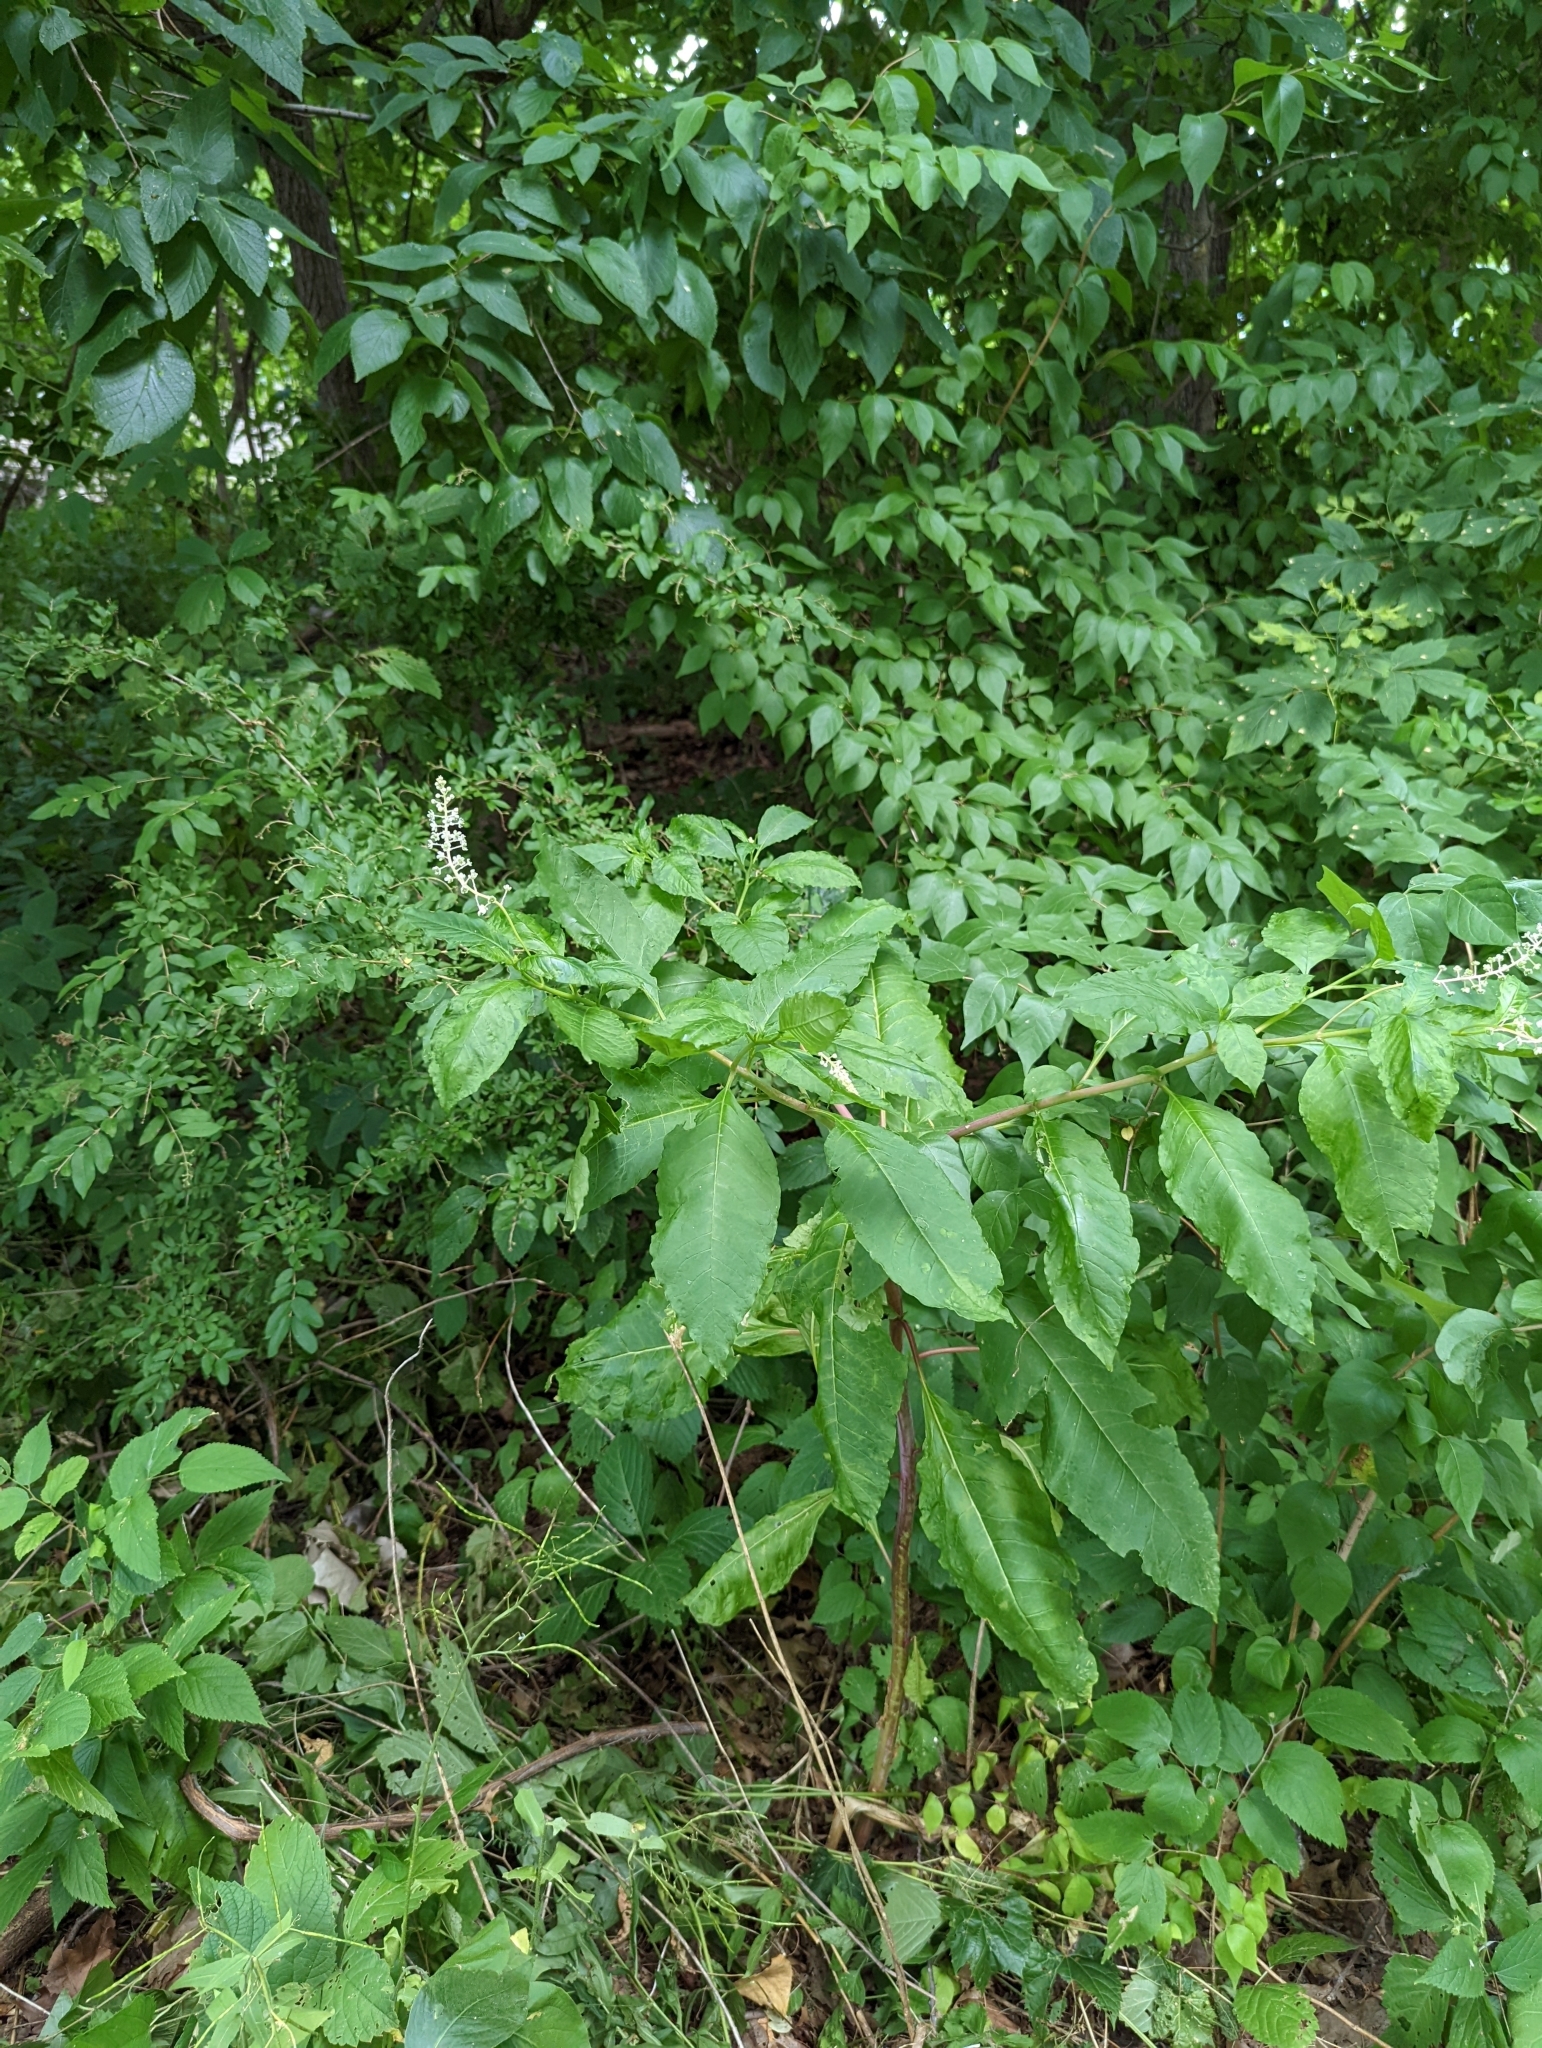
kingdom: Plantae
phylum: Tracheophyta
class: Magnoliopsida
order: Caryophyllales
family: Phytolaccaceae
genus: Phytolacca
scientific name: Phytolacca americana
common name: American pokeweed
